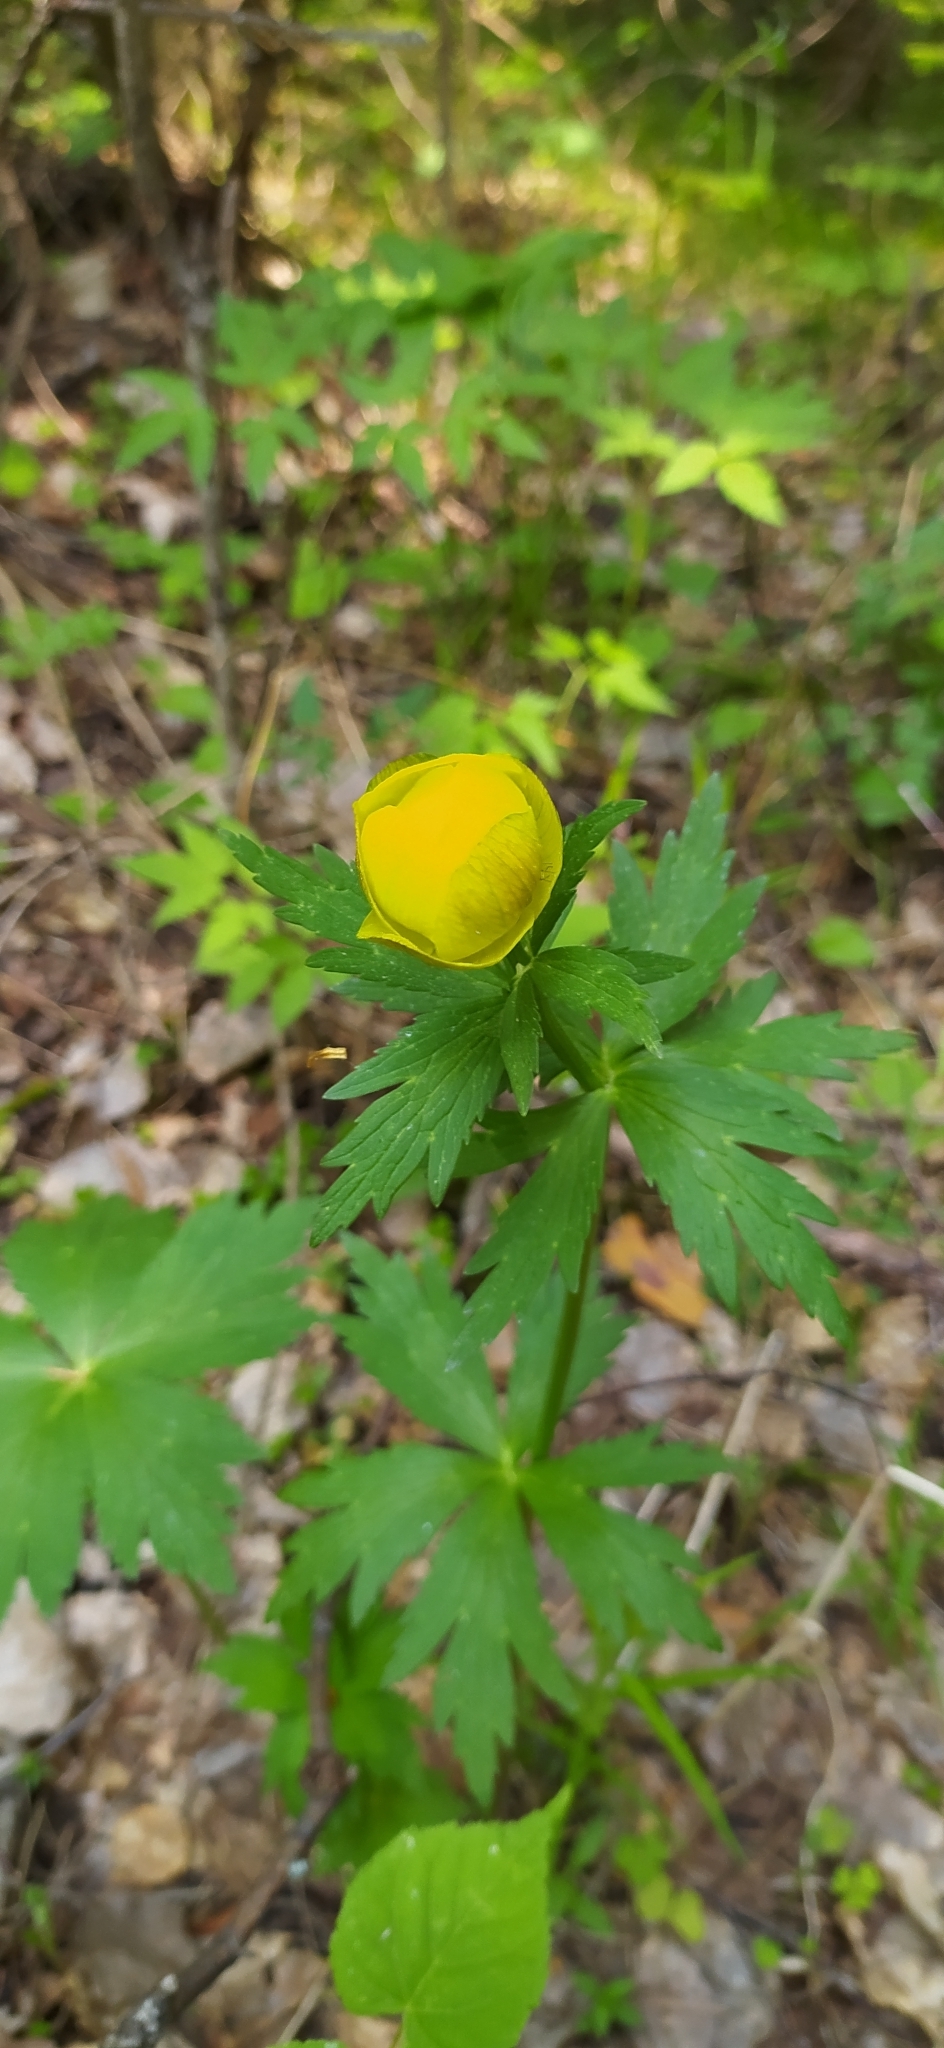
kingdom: Plantae
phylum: Tracheophyta
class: Magnoliopsida
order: Ranunculales
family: Ranunculaceae
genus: Trollius
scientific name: Trollius europaeus
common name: European globeflower
